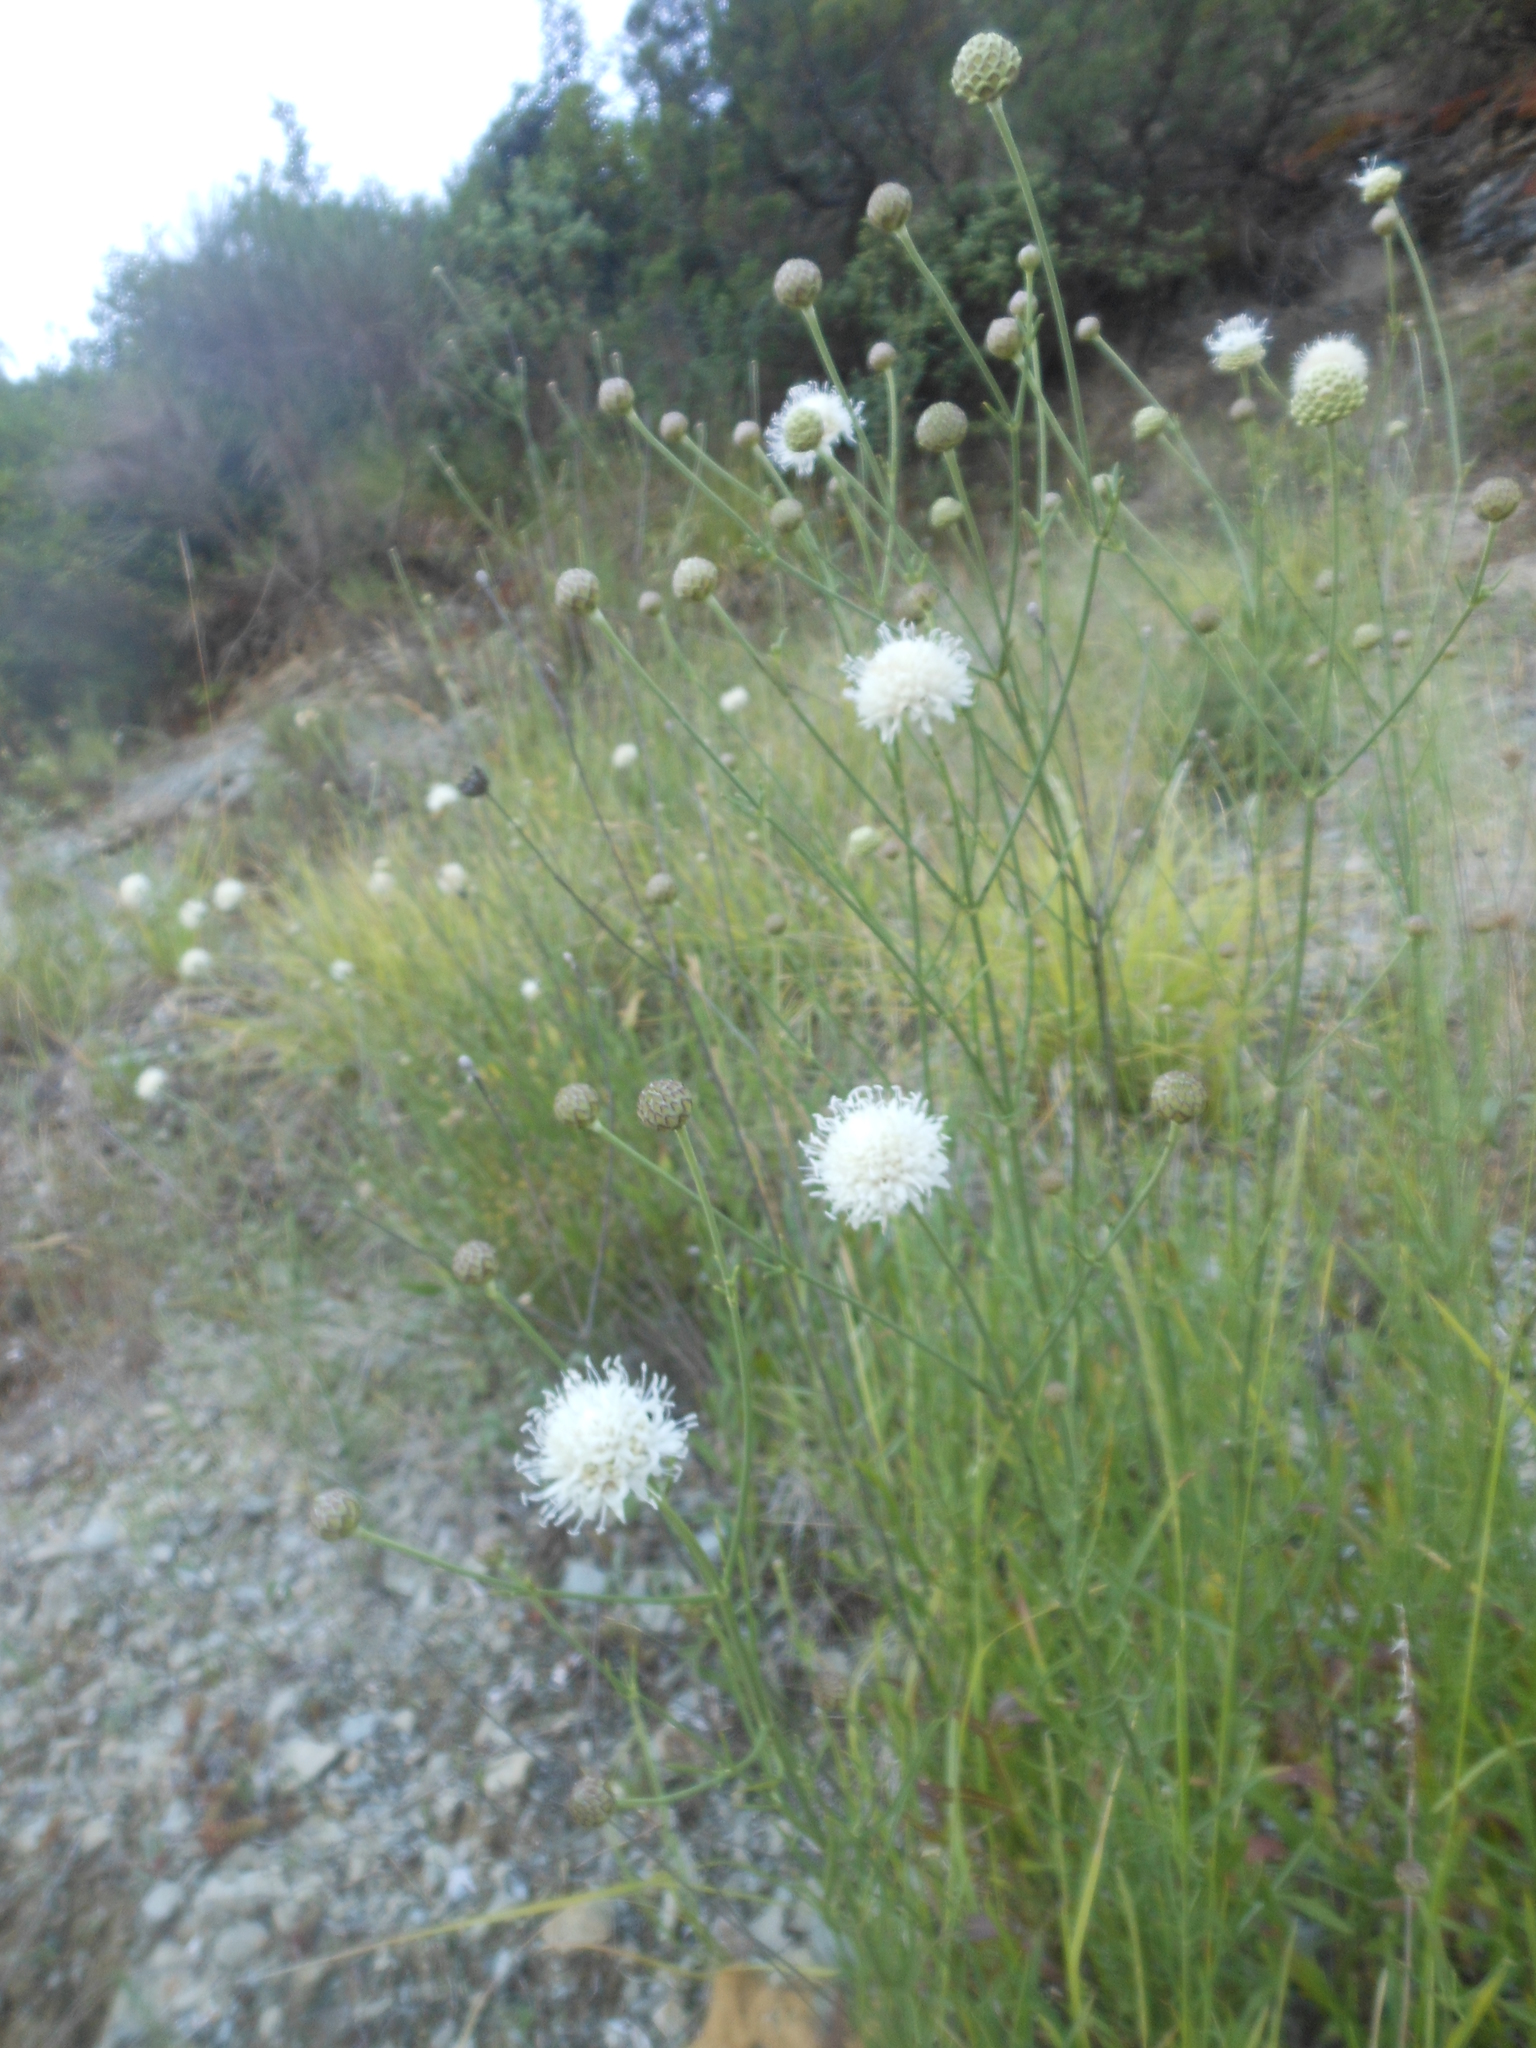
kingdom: Plantae
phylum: Tracheophyta
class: Magnoliopsida
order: Dipsacales
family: Caprifoliaceae
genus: Cephalaria
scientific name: Cephalaria leucantha
